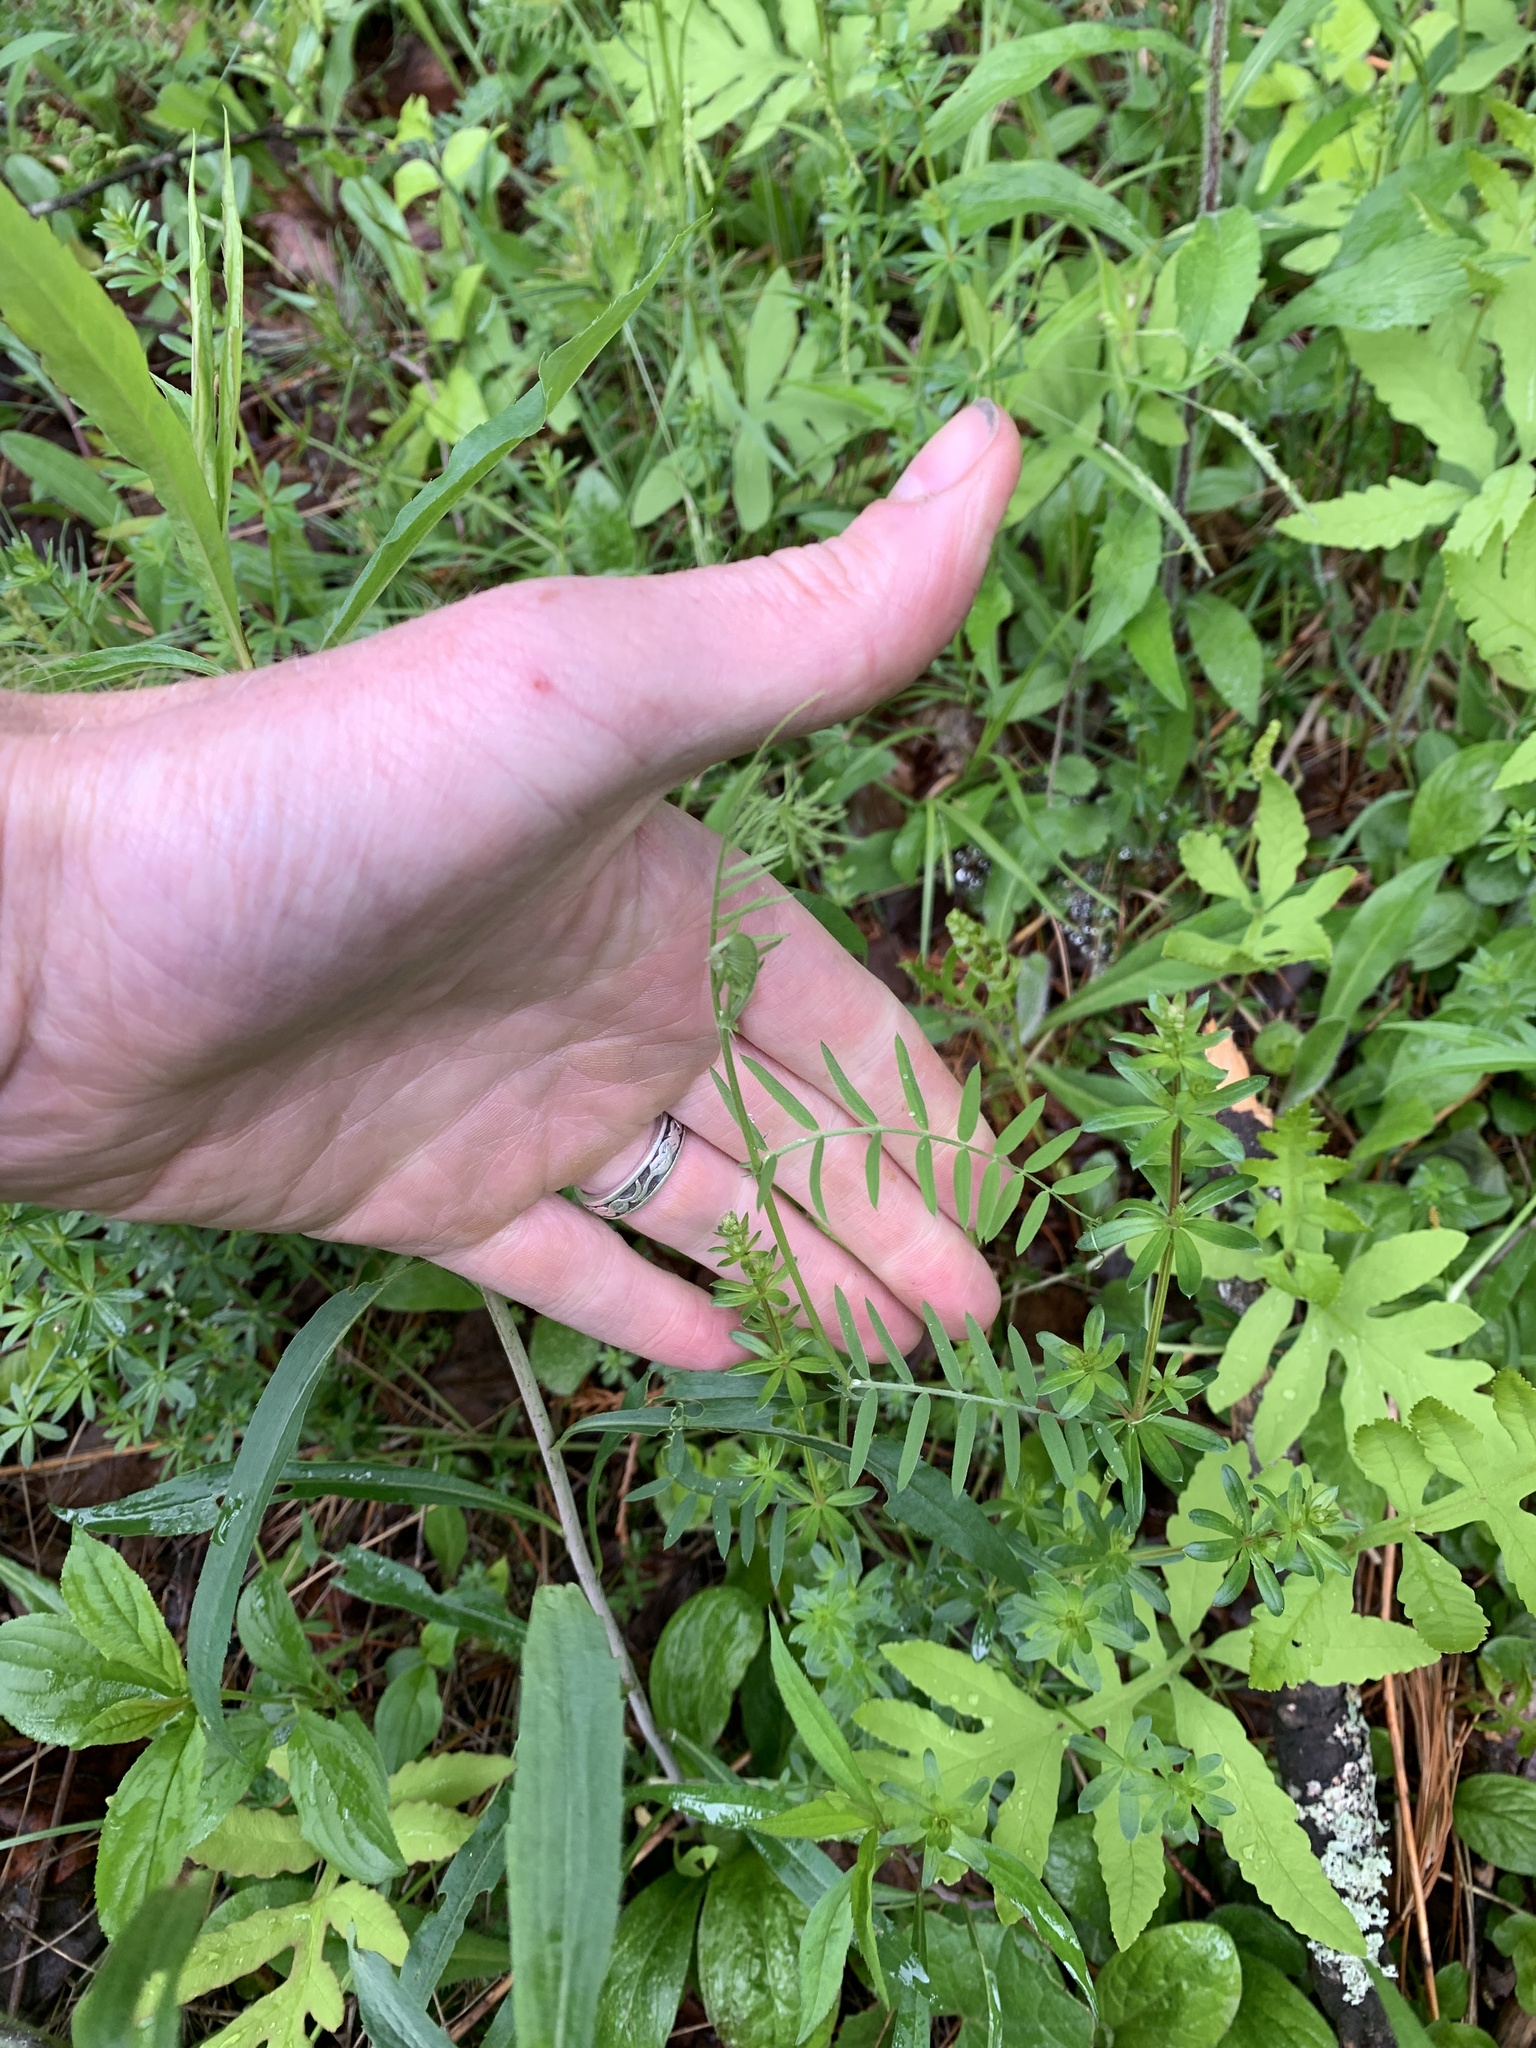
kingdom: Plantae
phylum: Tracheophyta
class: Magnoliopsida
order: Fabales
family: Fabaceae
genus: Vicia
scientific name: Vicia cracca
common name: Bird vetch
